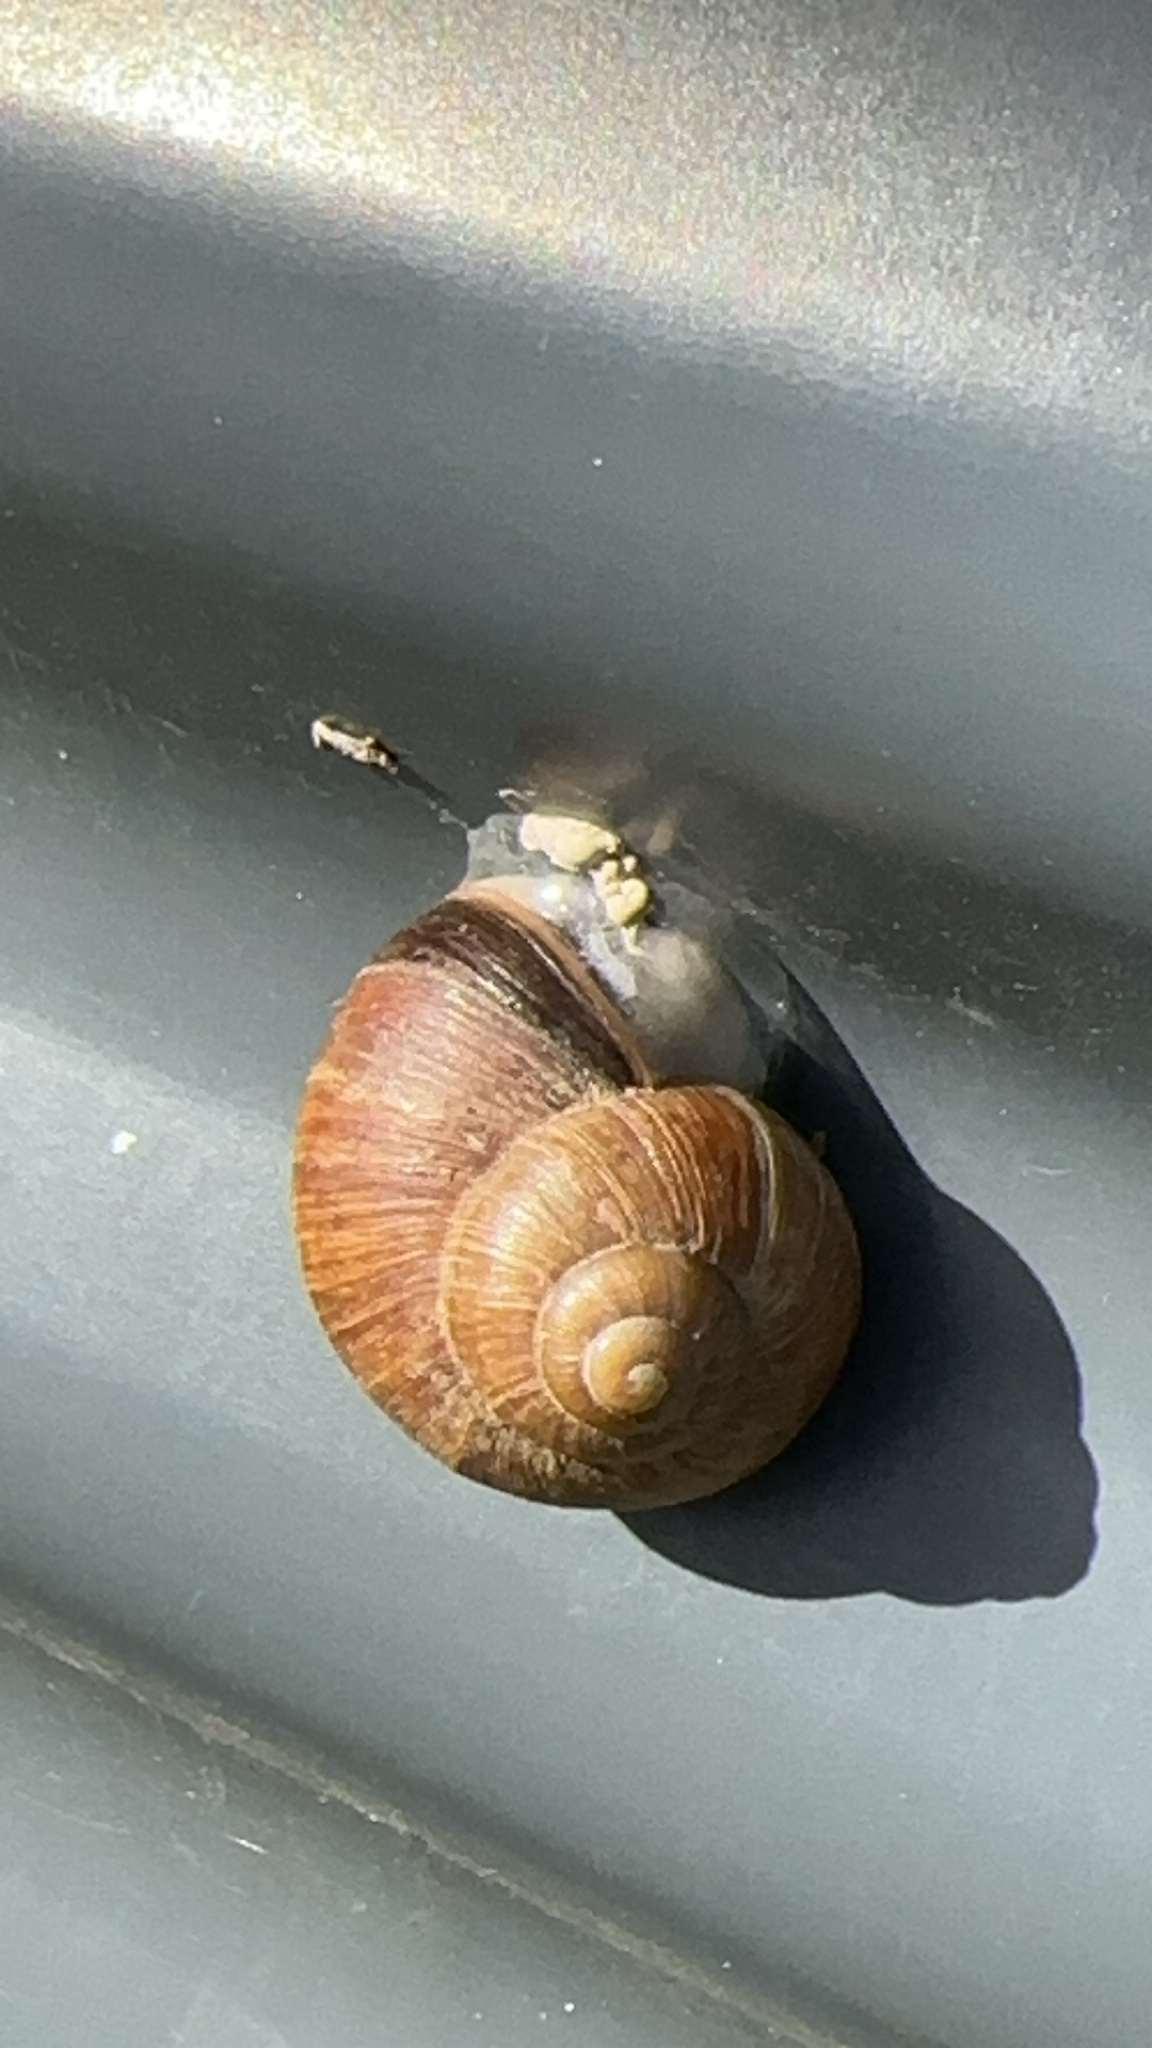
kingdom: Animalia
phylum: Mollusca
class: Gastropoda
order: Stylommatophora
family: Helicidae
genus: Helix
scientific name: Helix pomatia
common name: Roman snail
